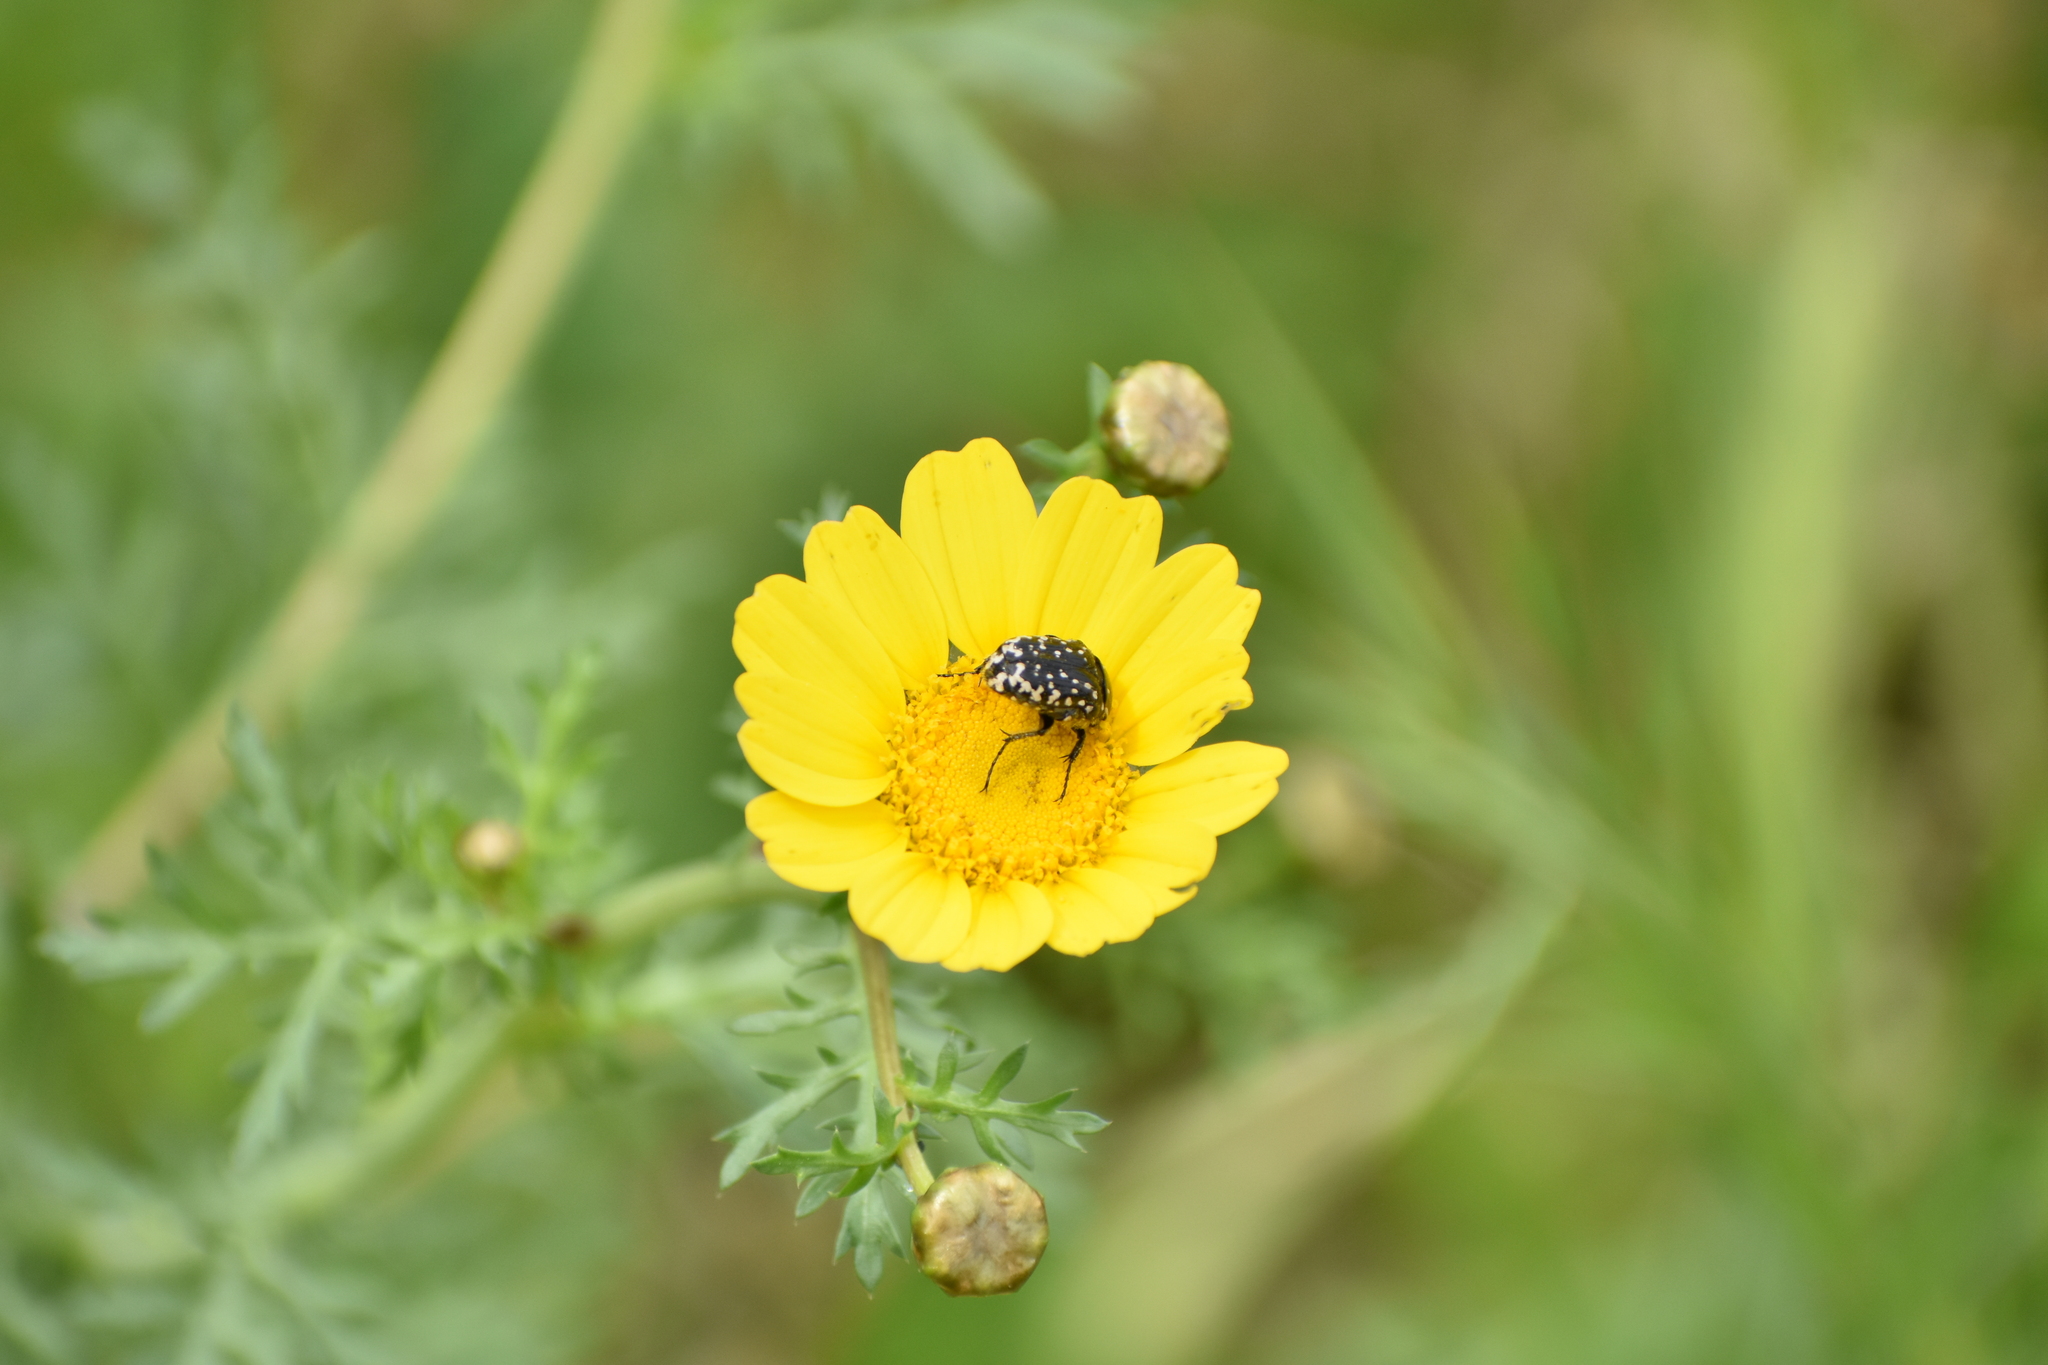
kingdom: Animalia
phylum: Arthropoda
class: Insecta
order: Coleoptera
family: Scarabaeidae
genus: Oxythyrea
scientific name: Oxythyrea noemi
